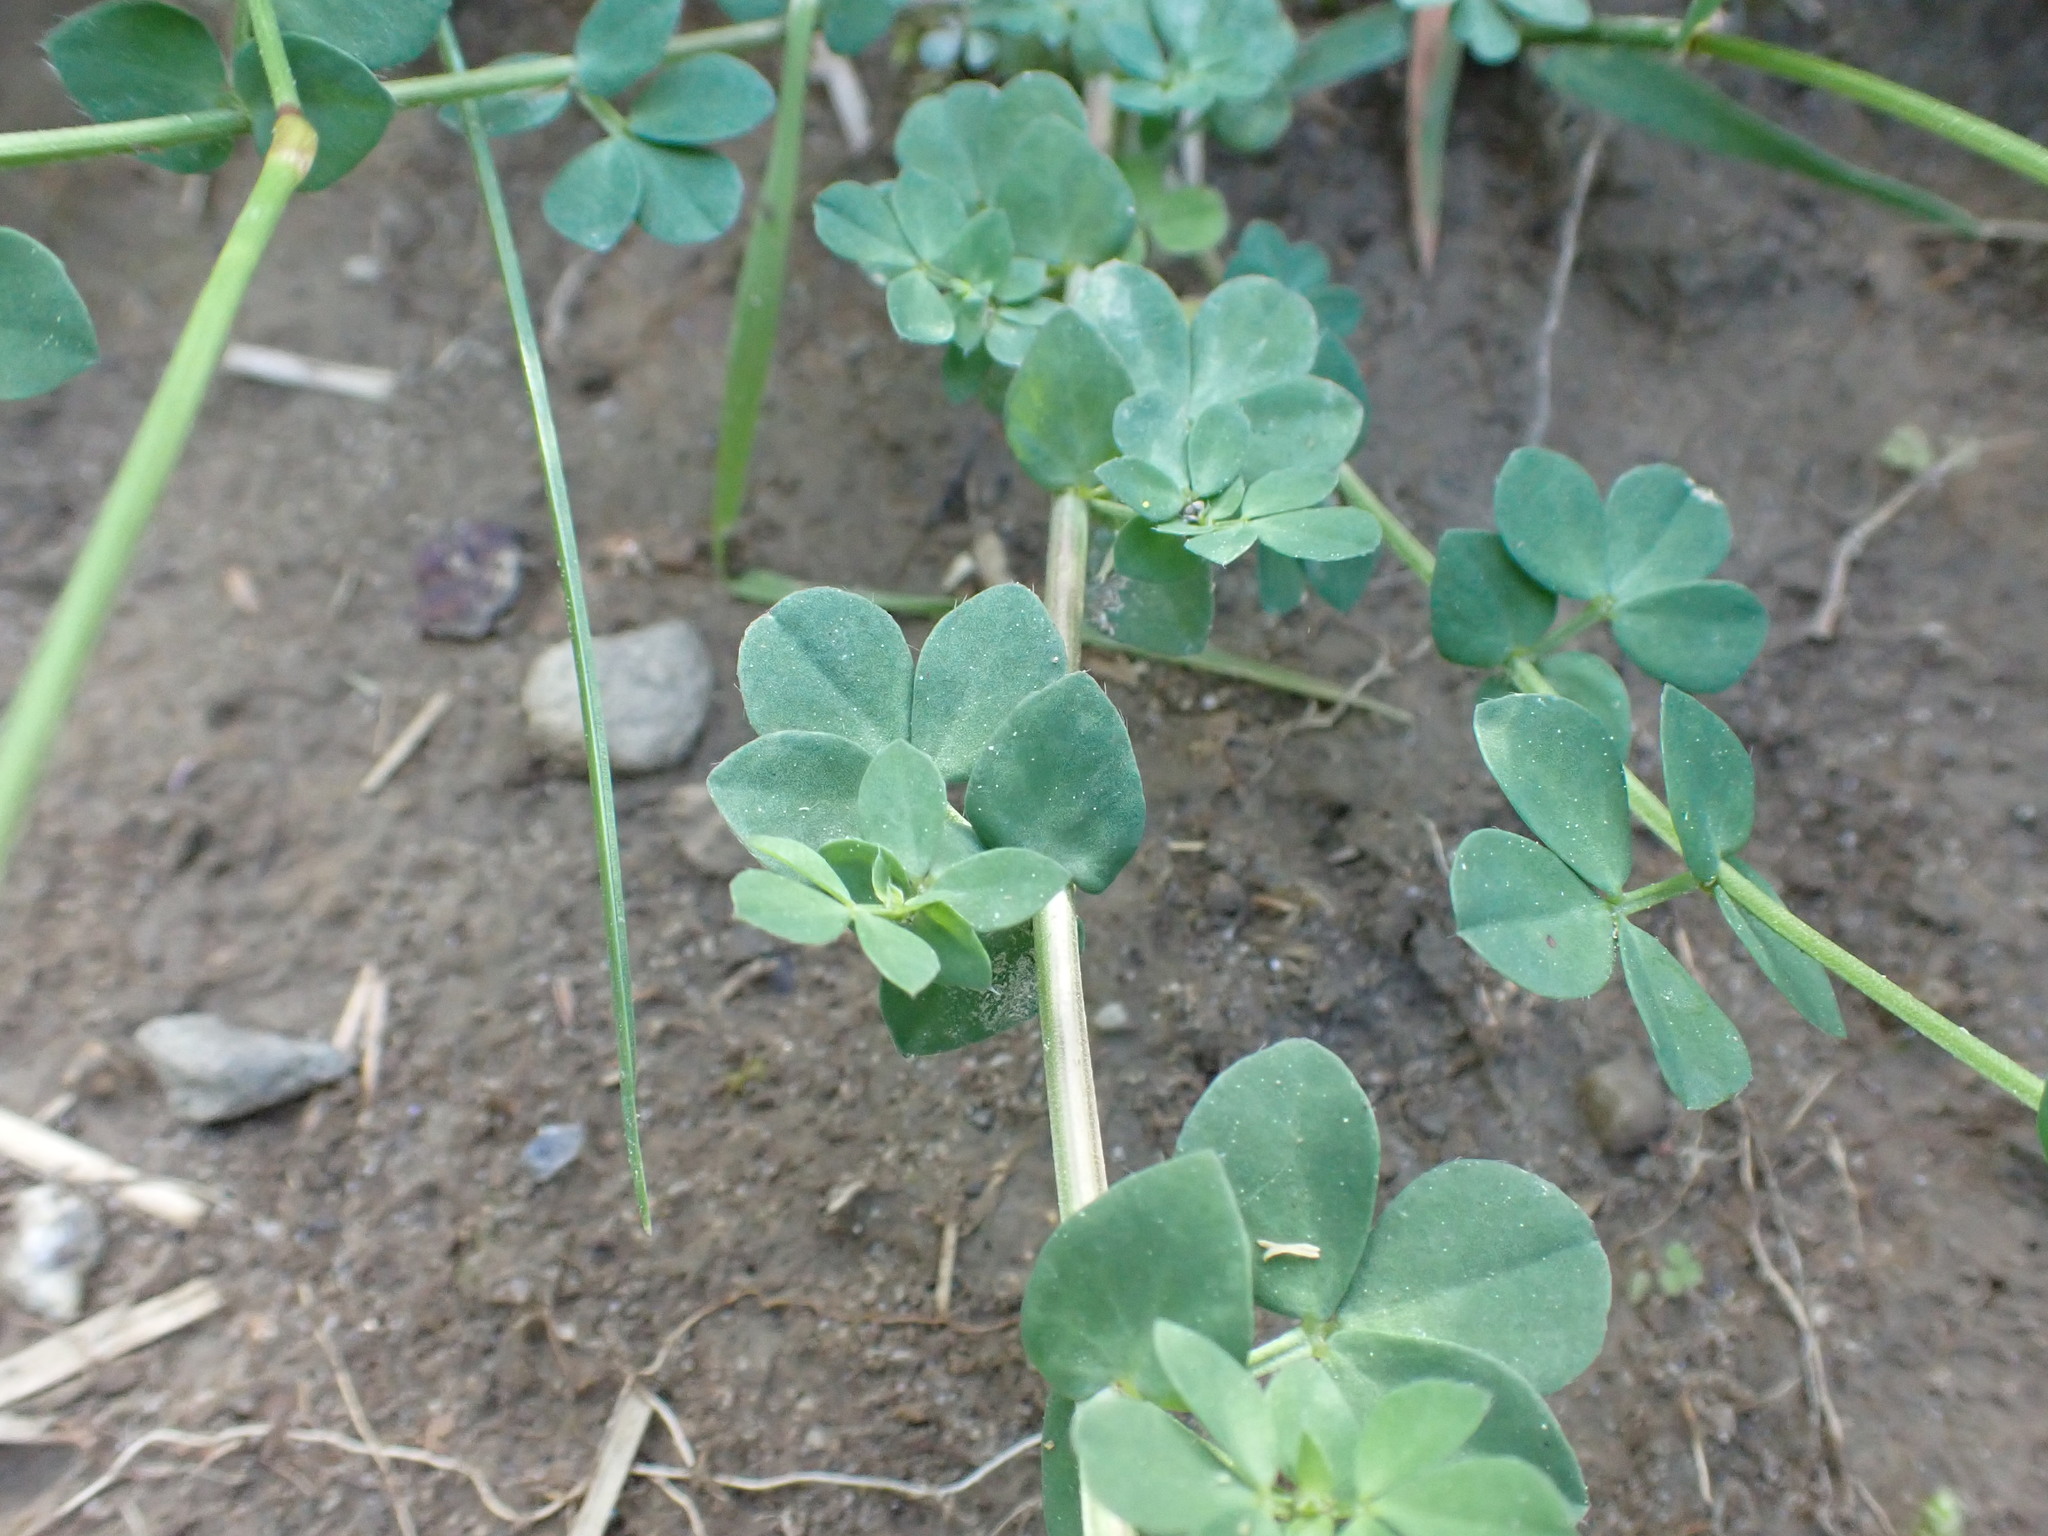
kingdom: Plantae
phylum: Tracheophyta
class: Magnoliopsida
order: Fabales
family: Fabaceae
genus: Lotus
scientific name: Lotus corniculatus
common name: Common bird's-foot-trefoil
